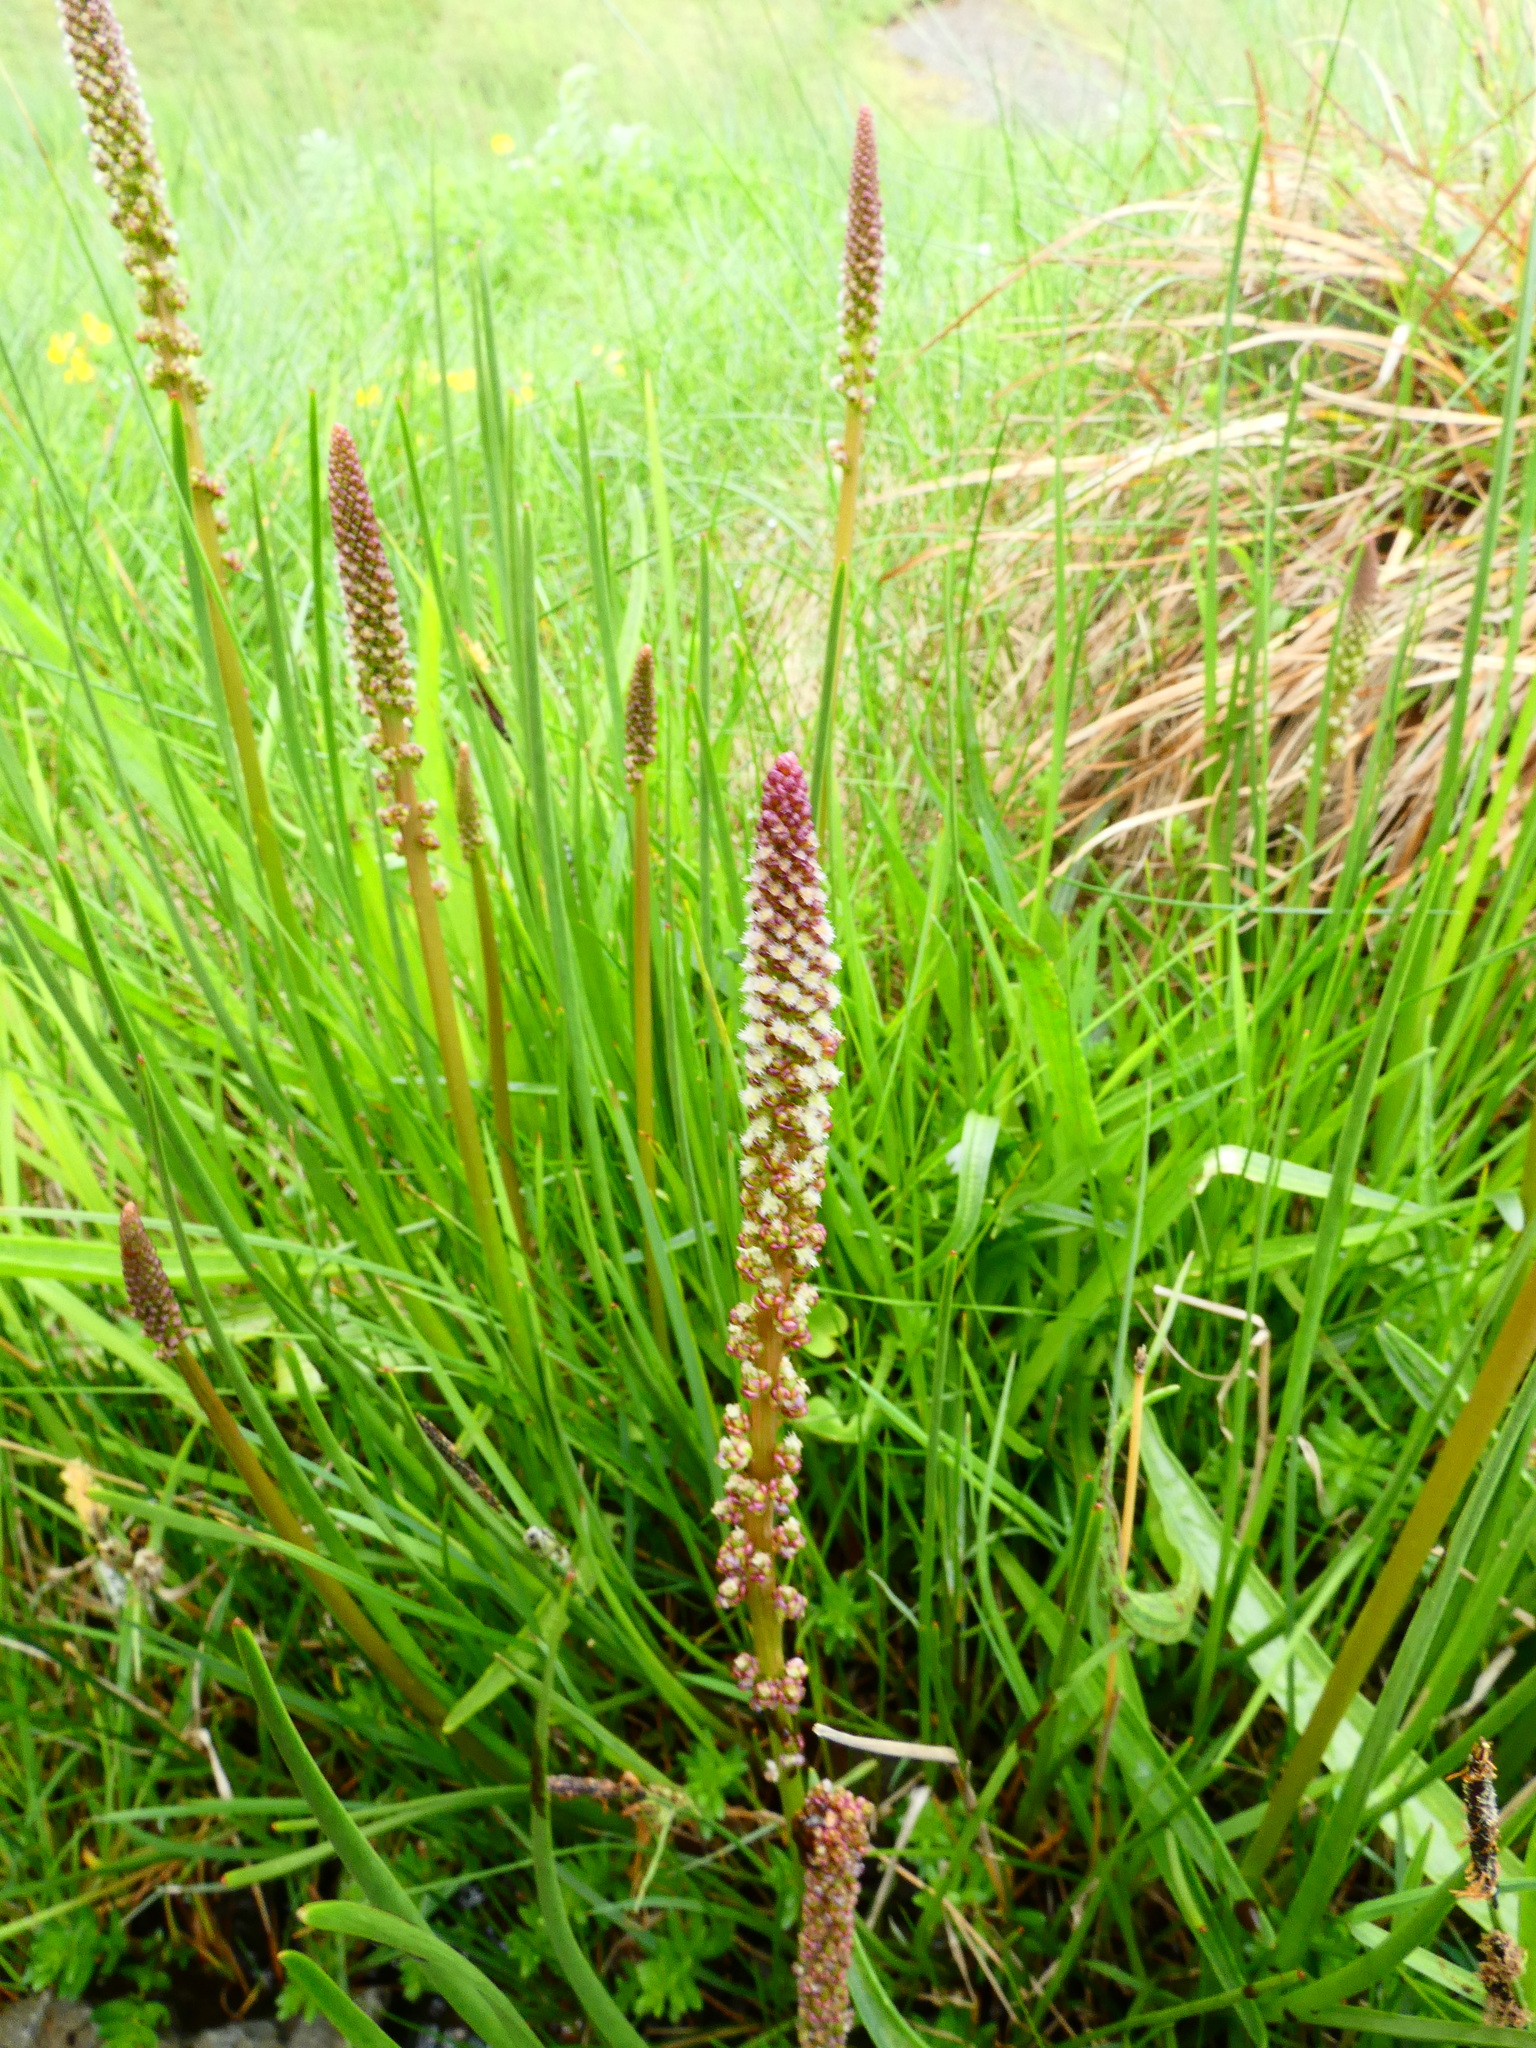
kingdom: Plantae
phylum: Tracheophyta
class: Liliopsida
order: Alismatales
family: Juncaginaceae
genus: Triglochin
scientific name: Triglochin maritima
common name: Sea arrowgrass
